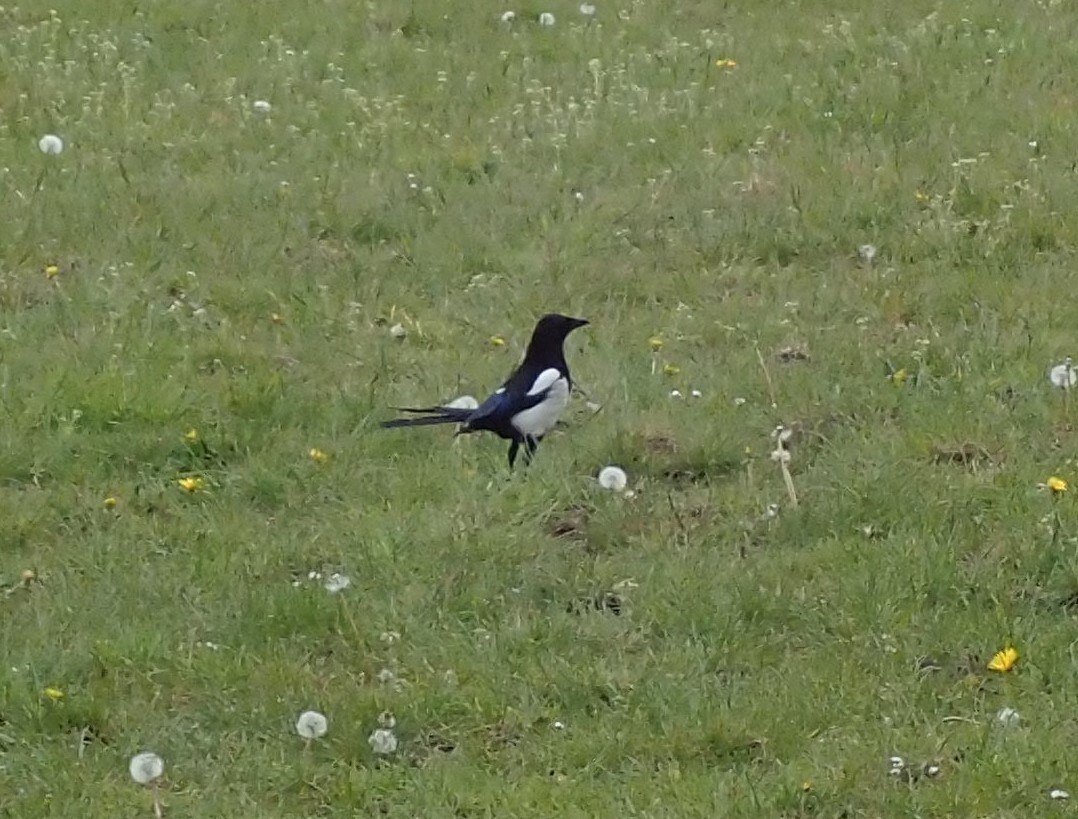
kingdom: Animalia
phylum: Chordata
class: Aves
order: Passeriformes
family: Corvidae
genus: Pica
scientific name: Pica pica
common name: Eurasian magpie
